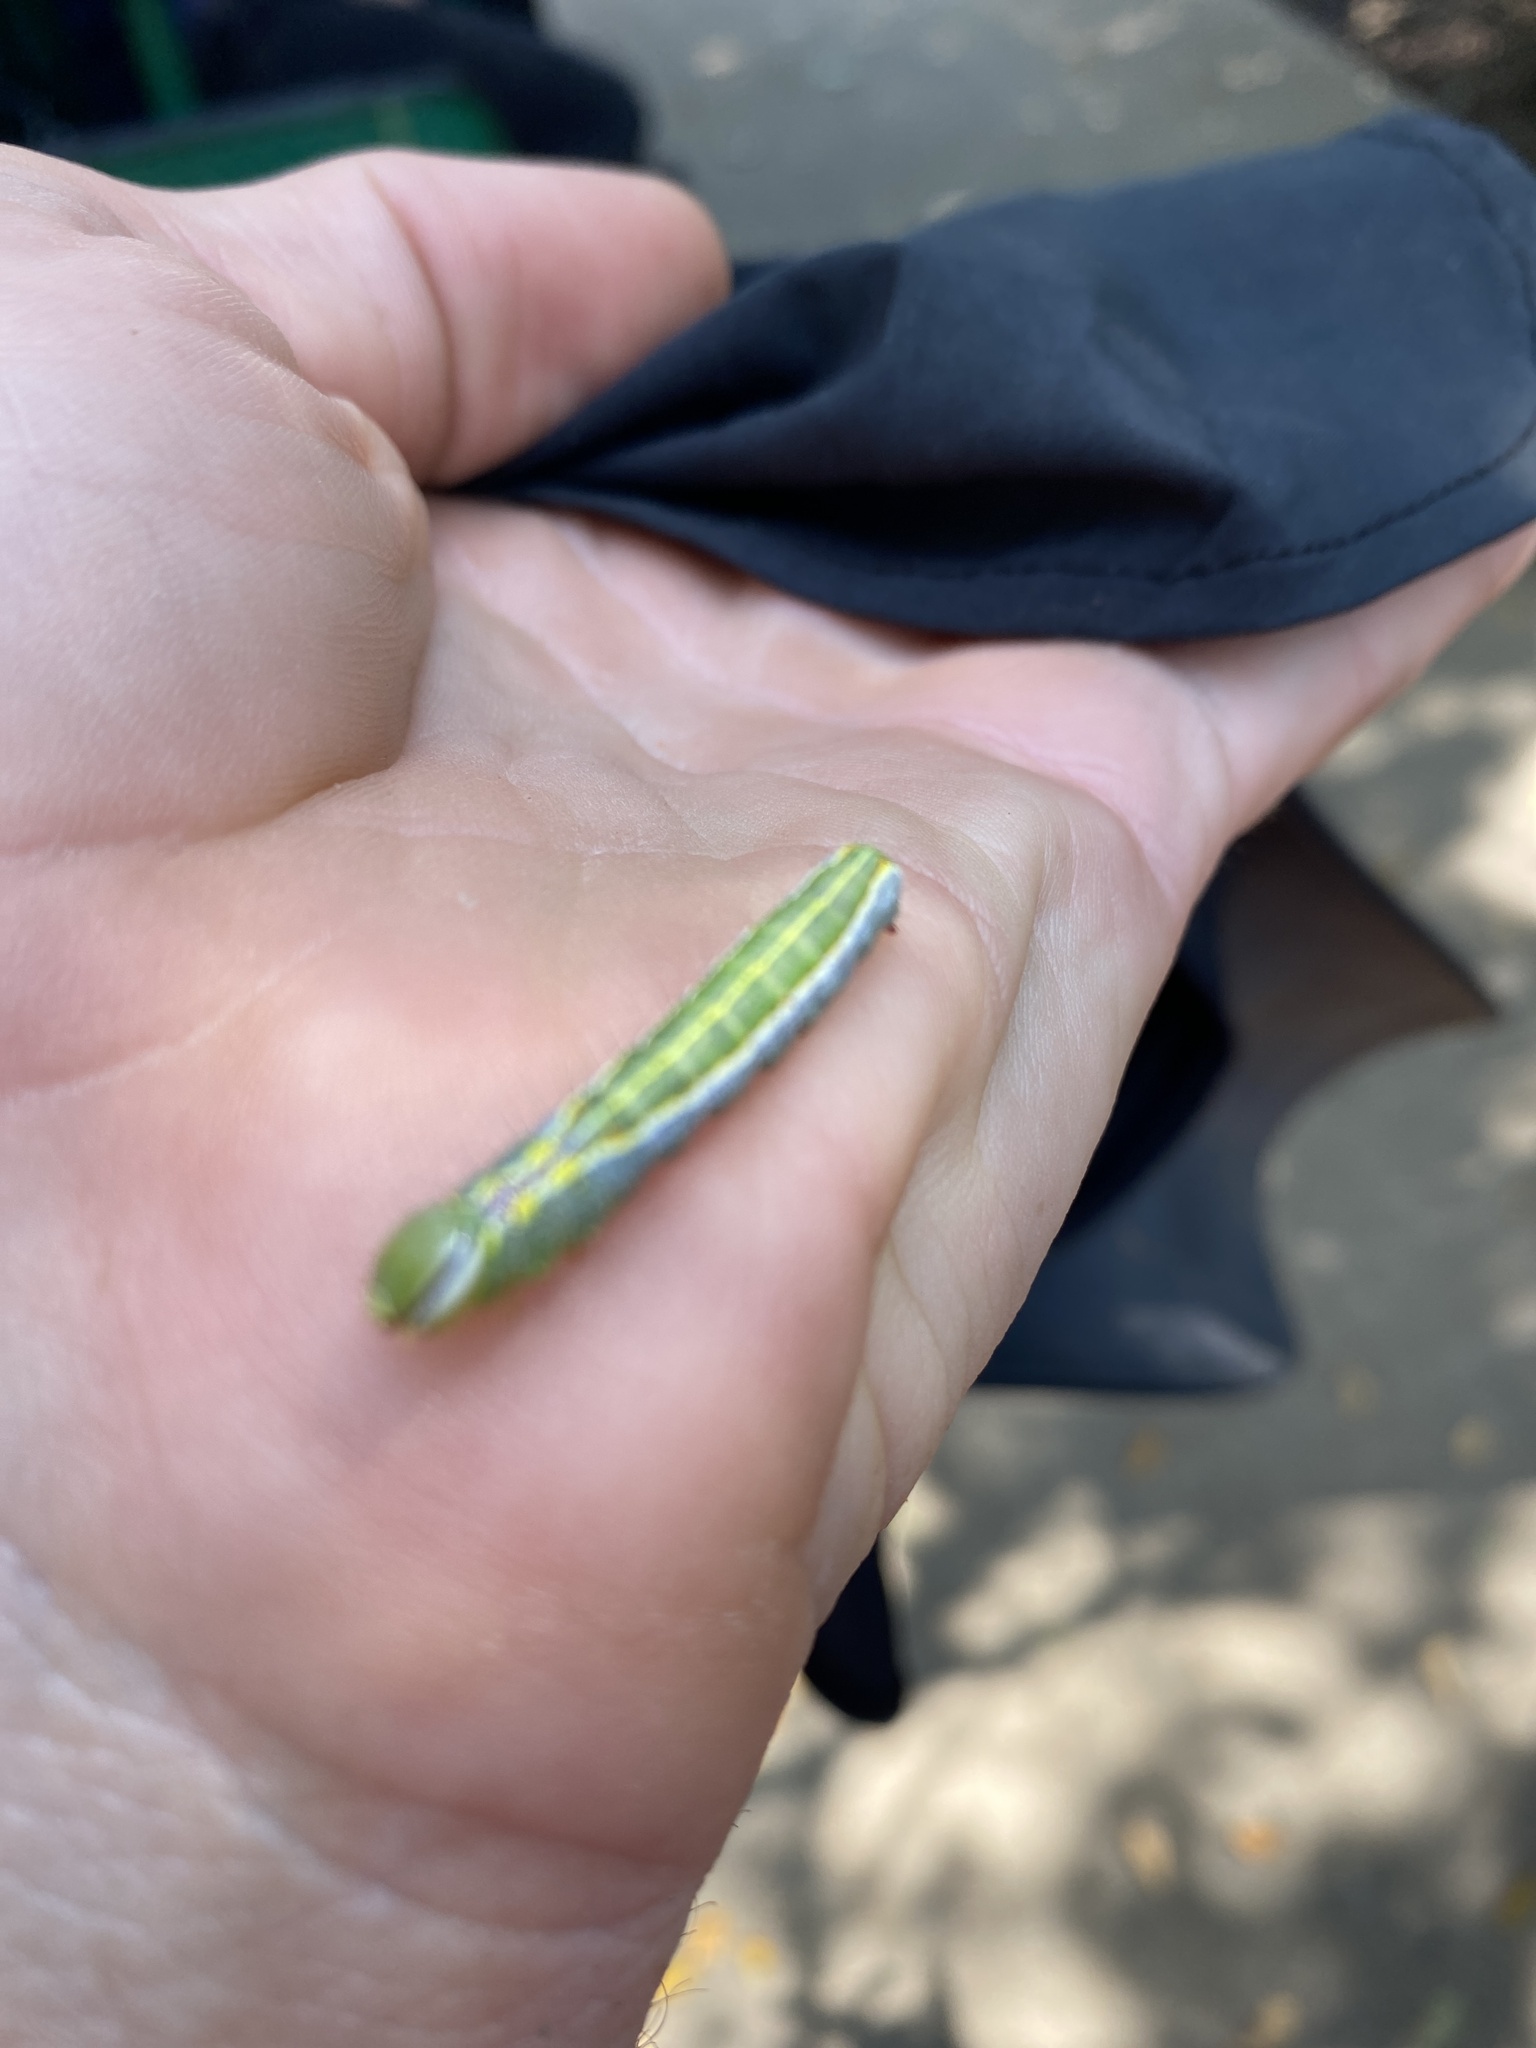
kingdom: Animalia
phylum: Arthropoda
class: Insecta
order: Lepidoptera
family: Notodontidae
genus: Lochmaeus
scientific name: Lochmaeus manteo
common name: Variable oakleaf caterpillar moth
